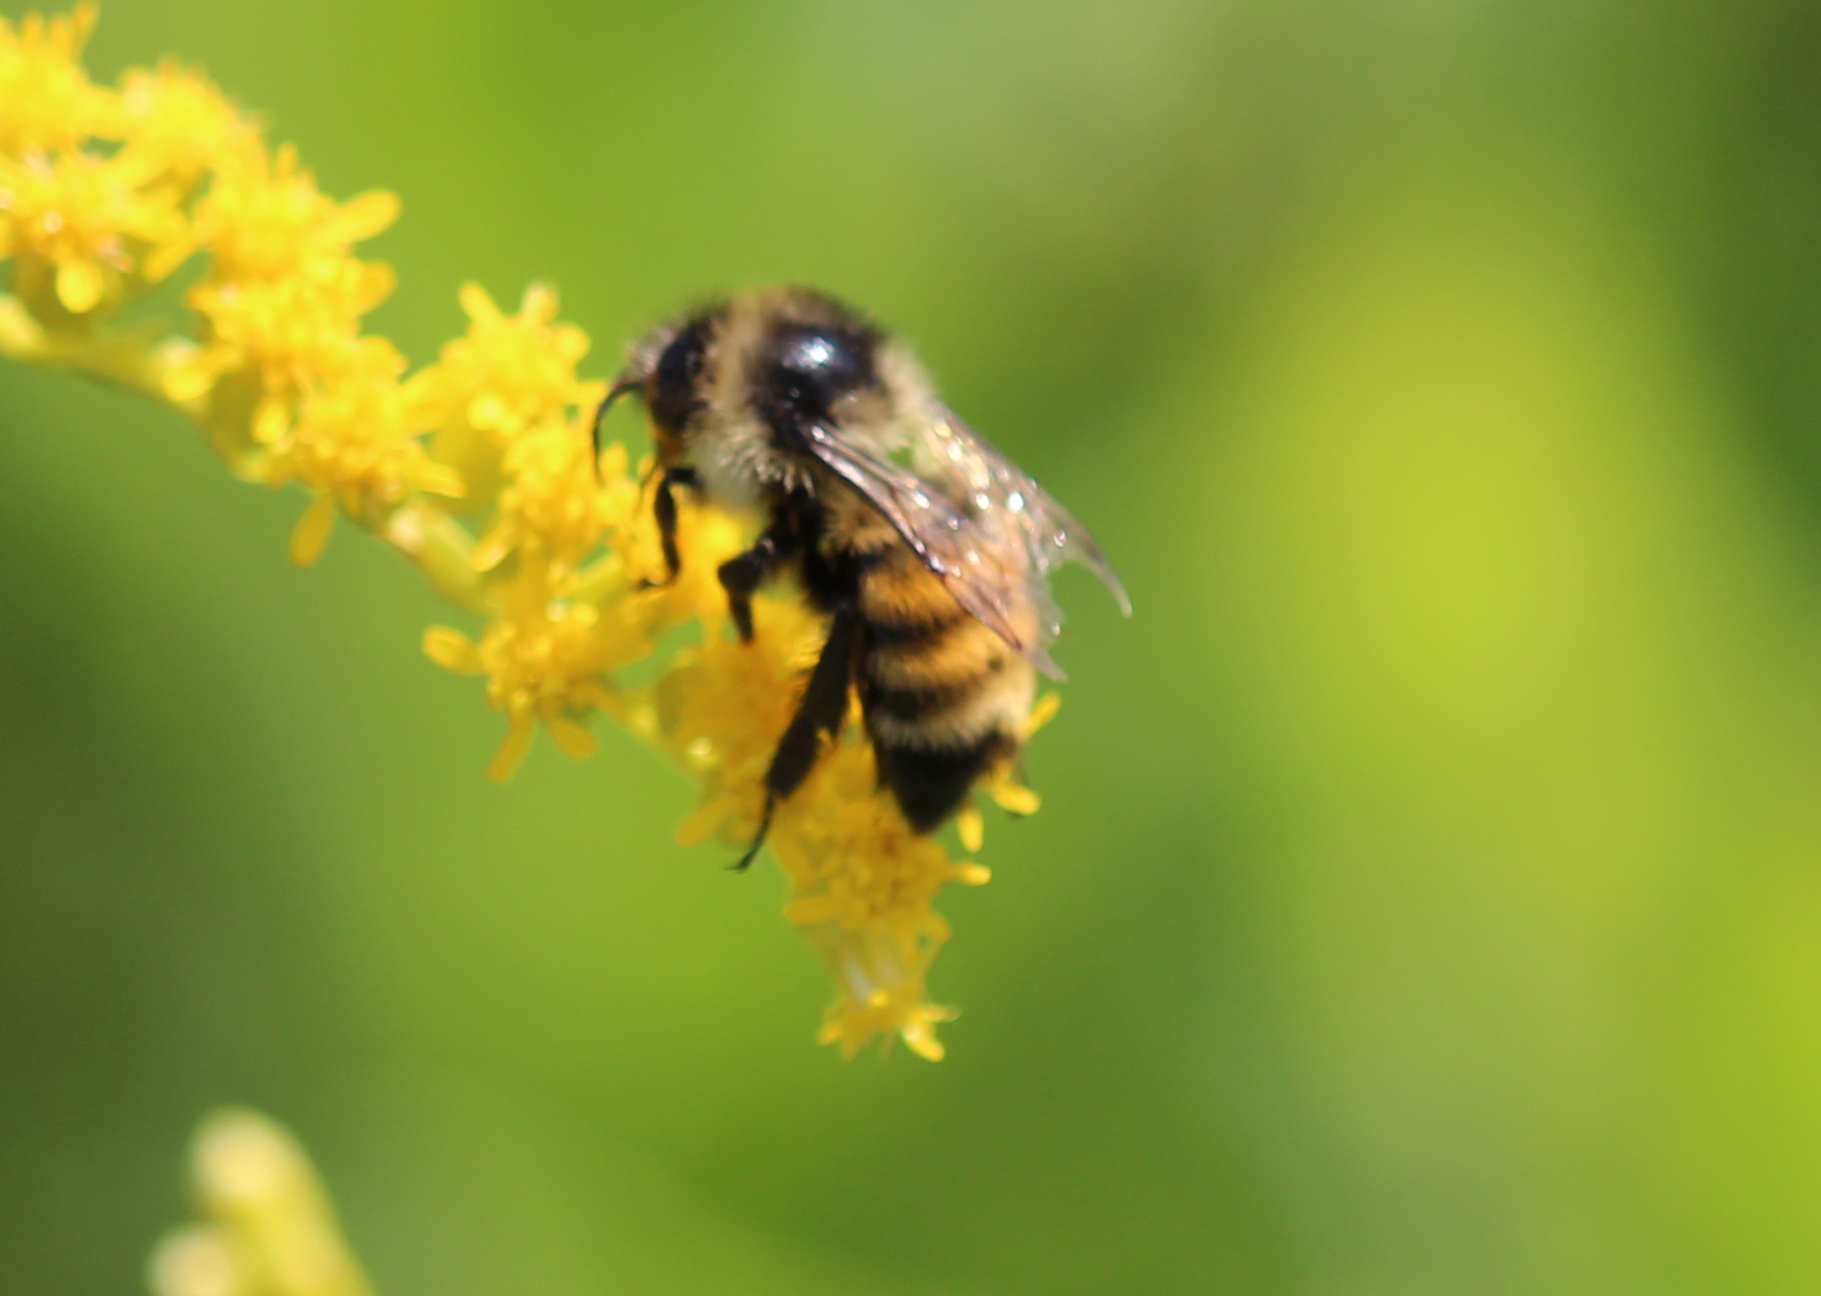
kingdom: Animalia
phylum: Arthropoda
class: Insecta
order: Hymenoptera
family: Apidae
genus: Bombus
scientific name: Bombus ternarius
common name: Tri-colored bumble bee
